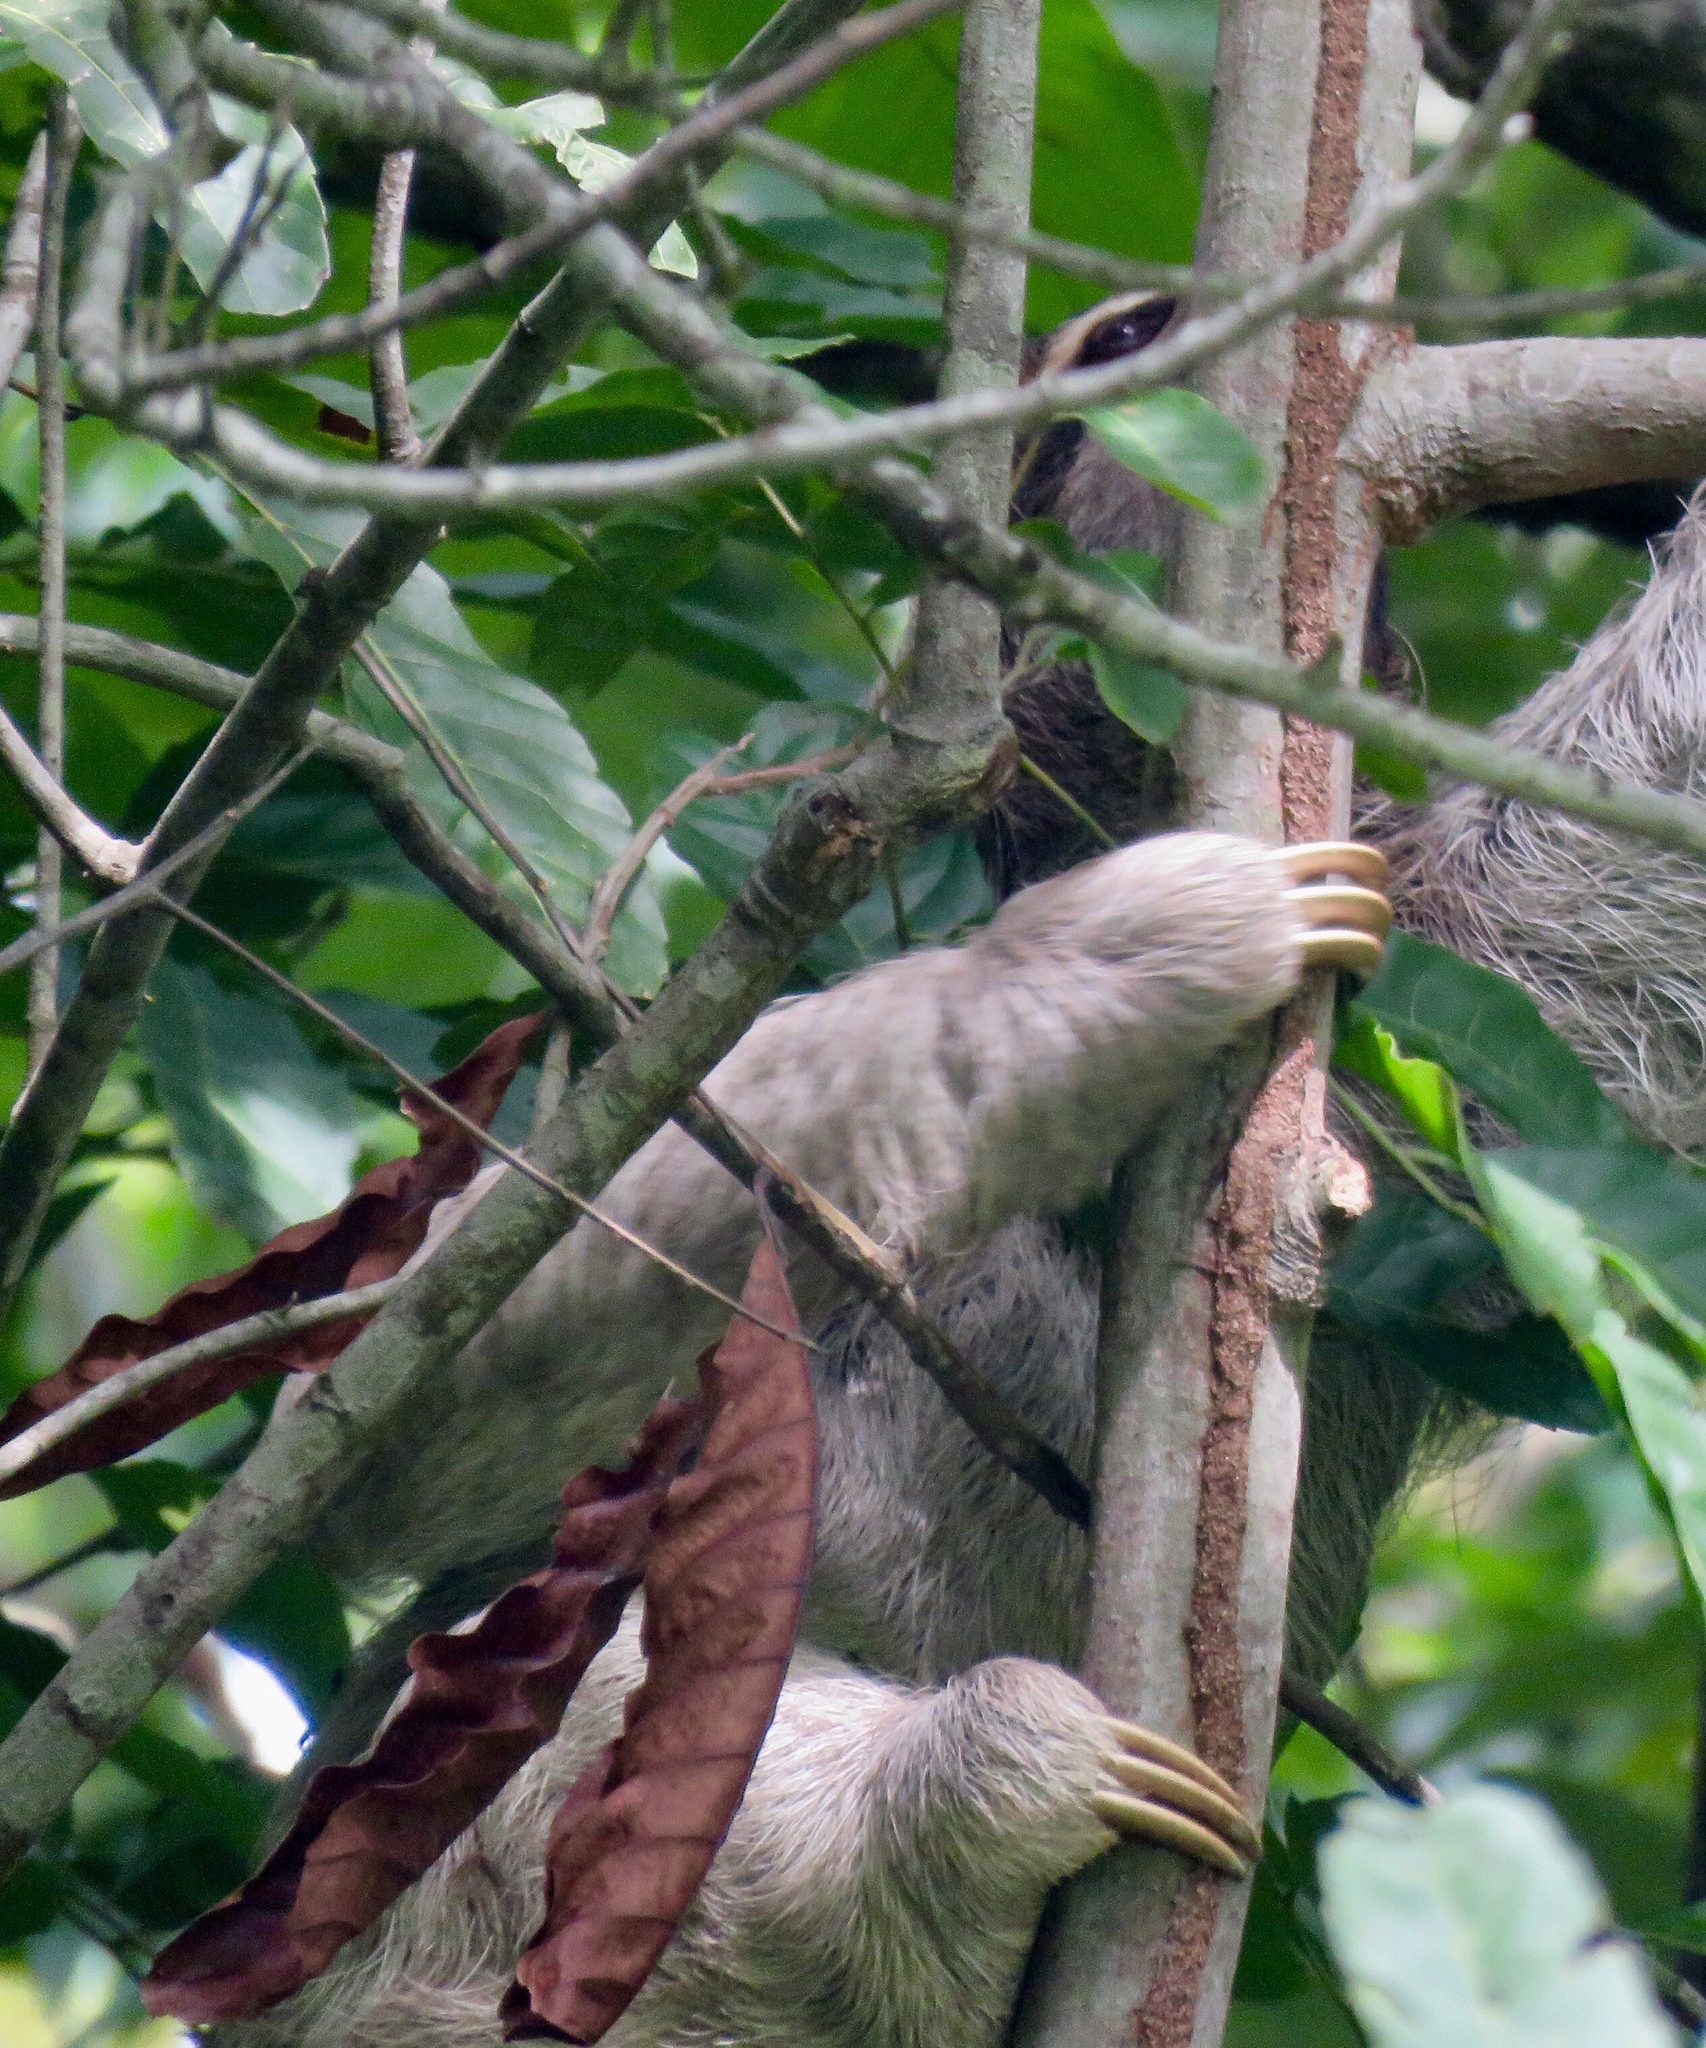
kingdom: Animalia
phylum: Chordata
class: Mammalia
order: Pilosa
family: Bradypodidae
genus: Bradypus
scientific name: Bradypus variegatus
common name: Brown-throated three-toed sloth
